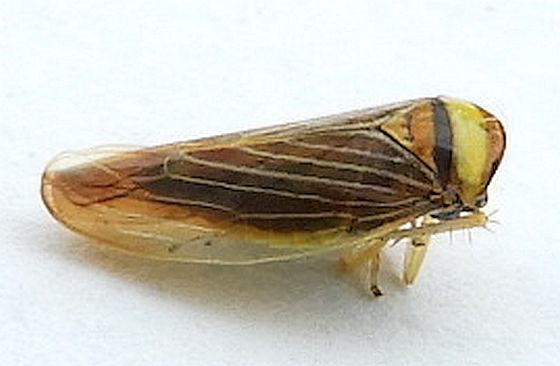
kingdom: Animalia
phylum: Arthropoda
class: Insecta
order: Hemiptera
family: Cicadellidae
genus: Colladonus
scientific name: Colladonus brunneus
